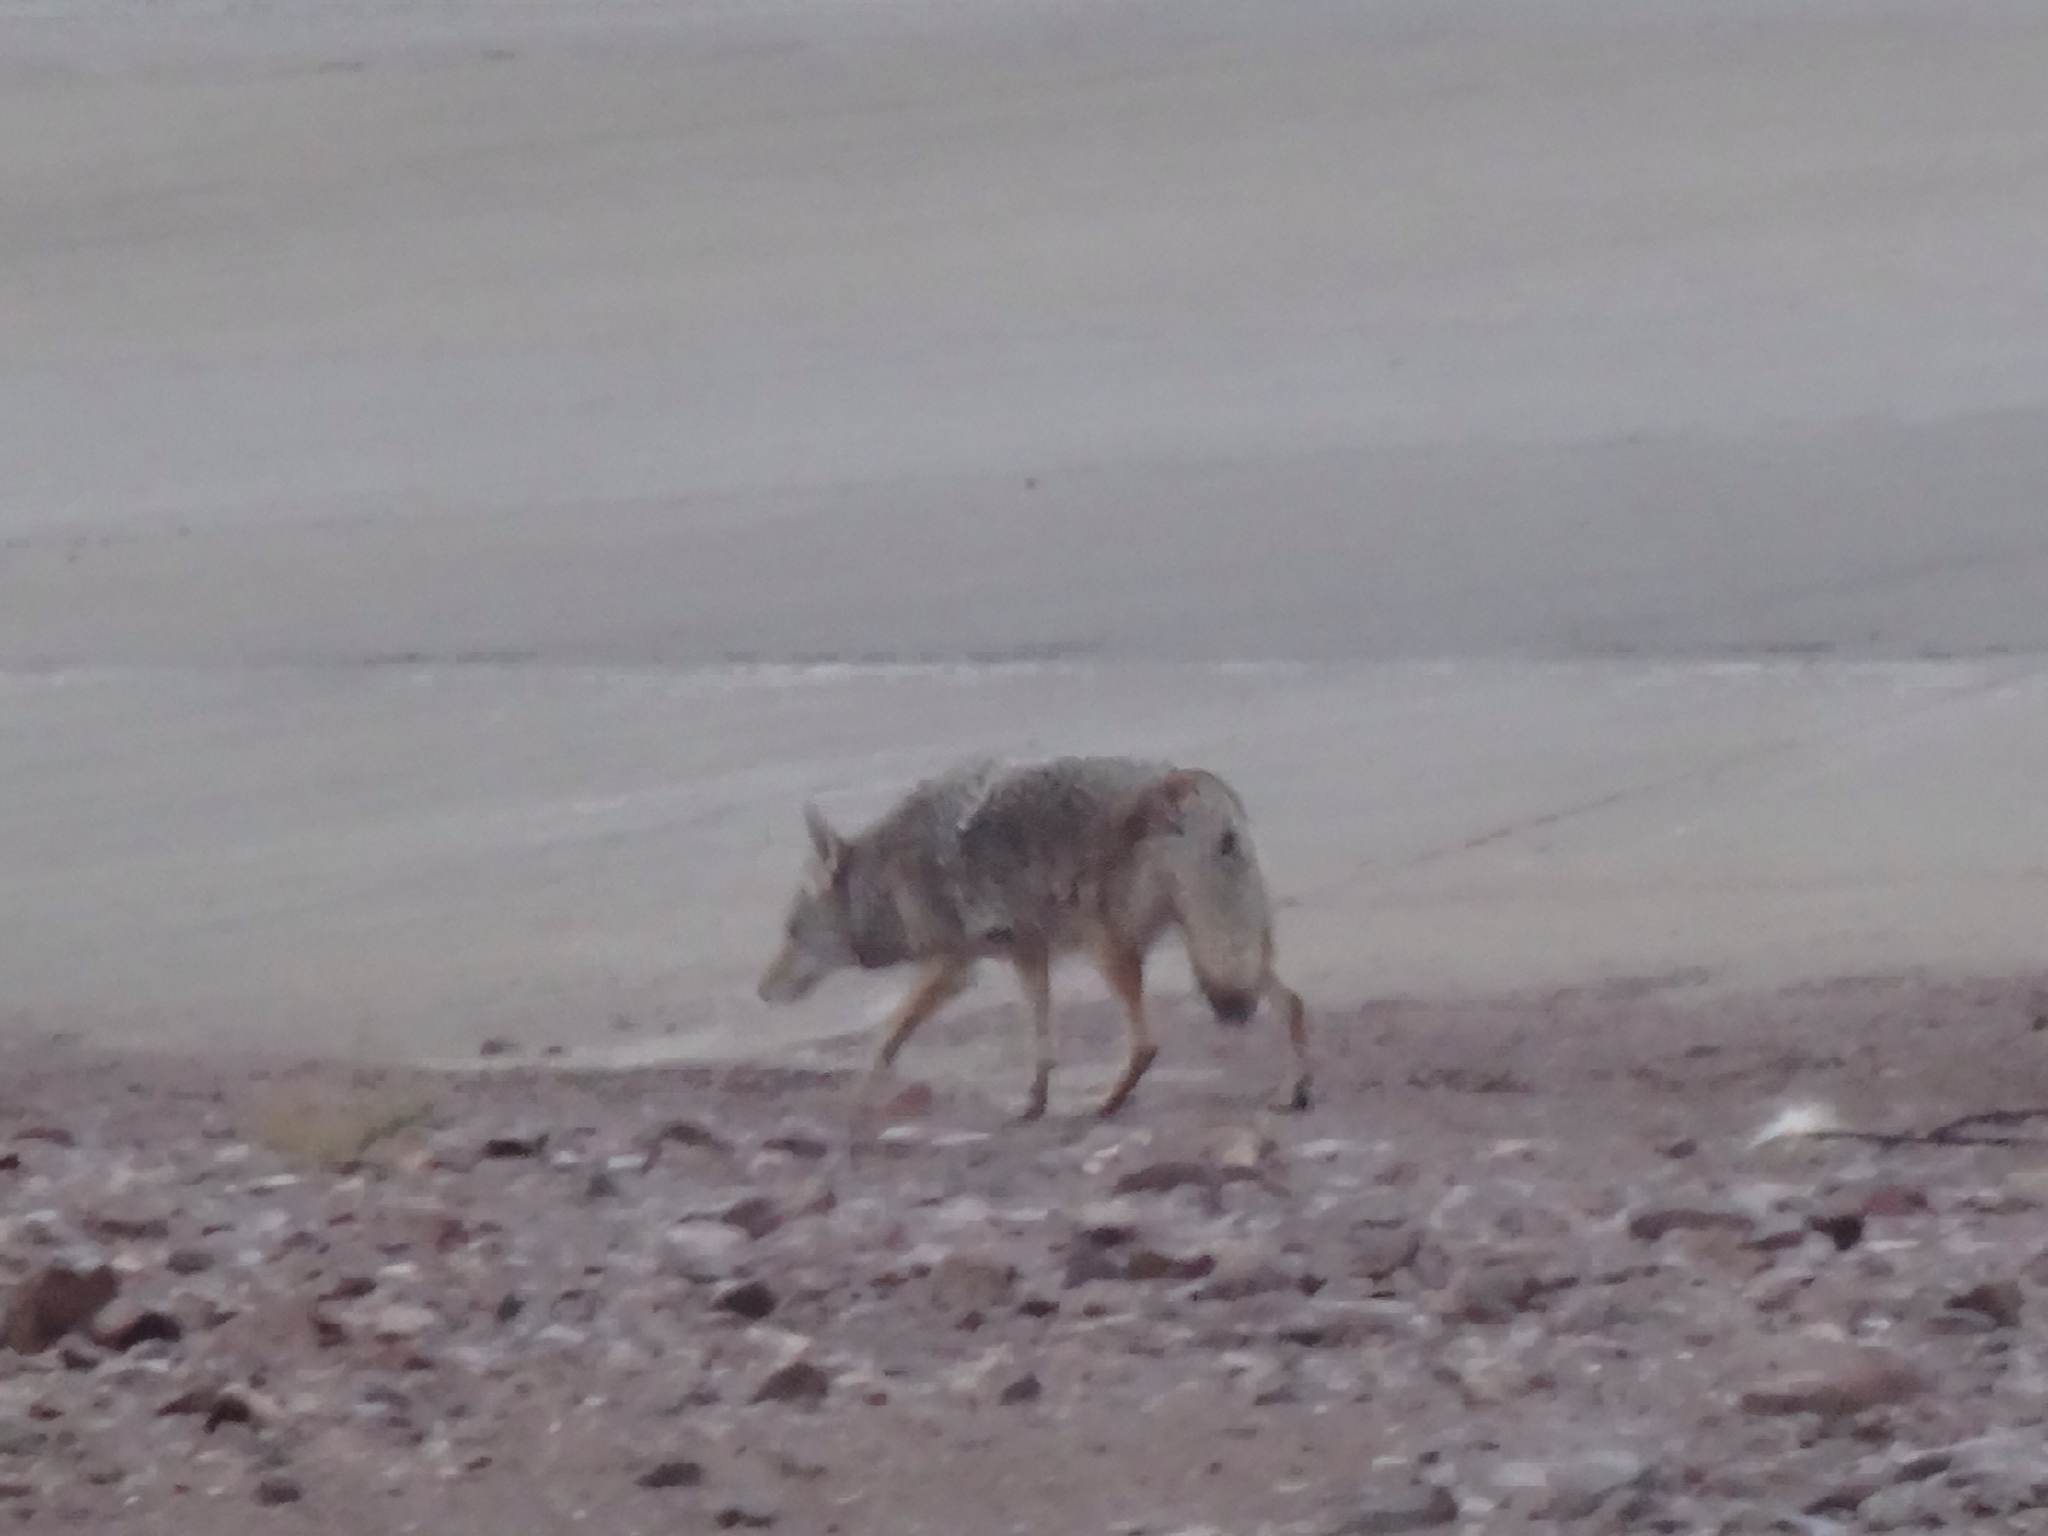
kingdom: Animalia
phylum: Chordata
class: Mammalia
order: Carnivora
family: Canidae
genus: Canis
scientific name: Canis latrans
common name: Coyote
